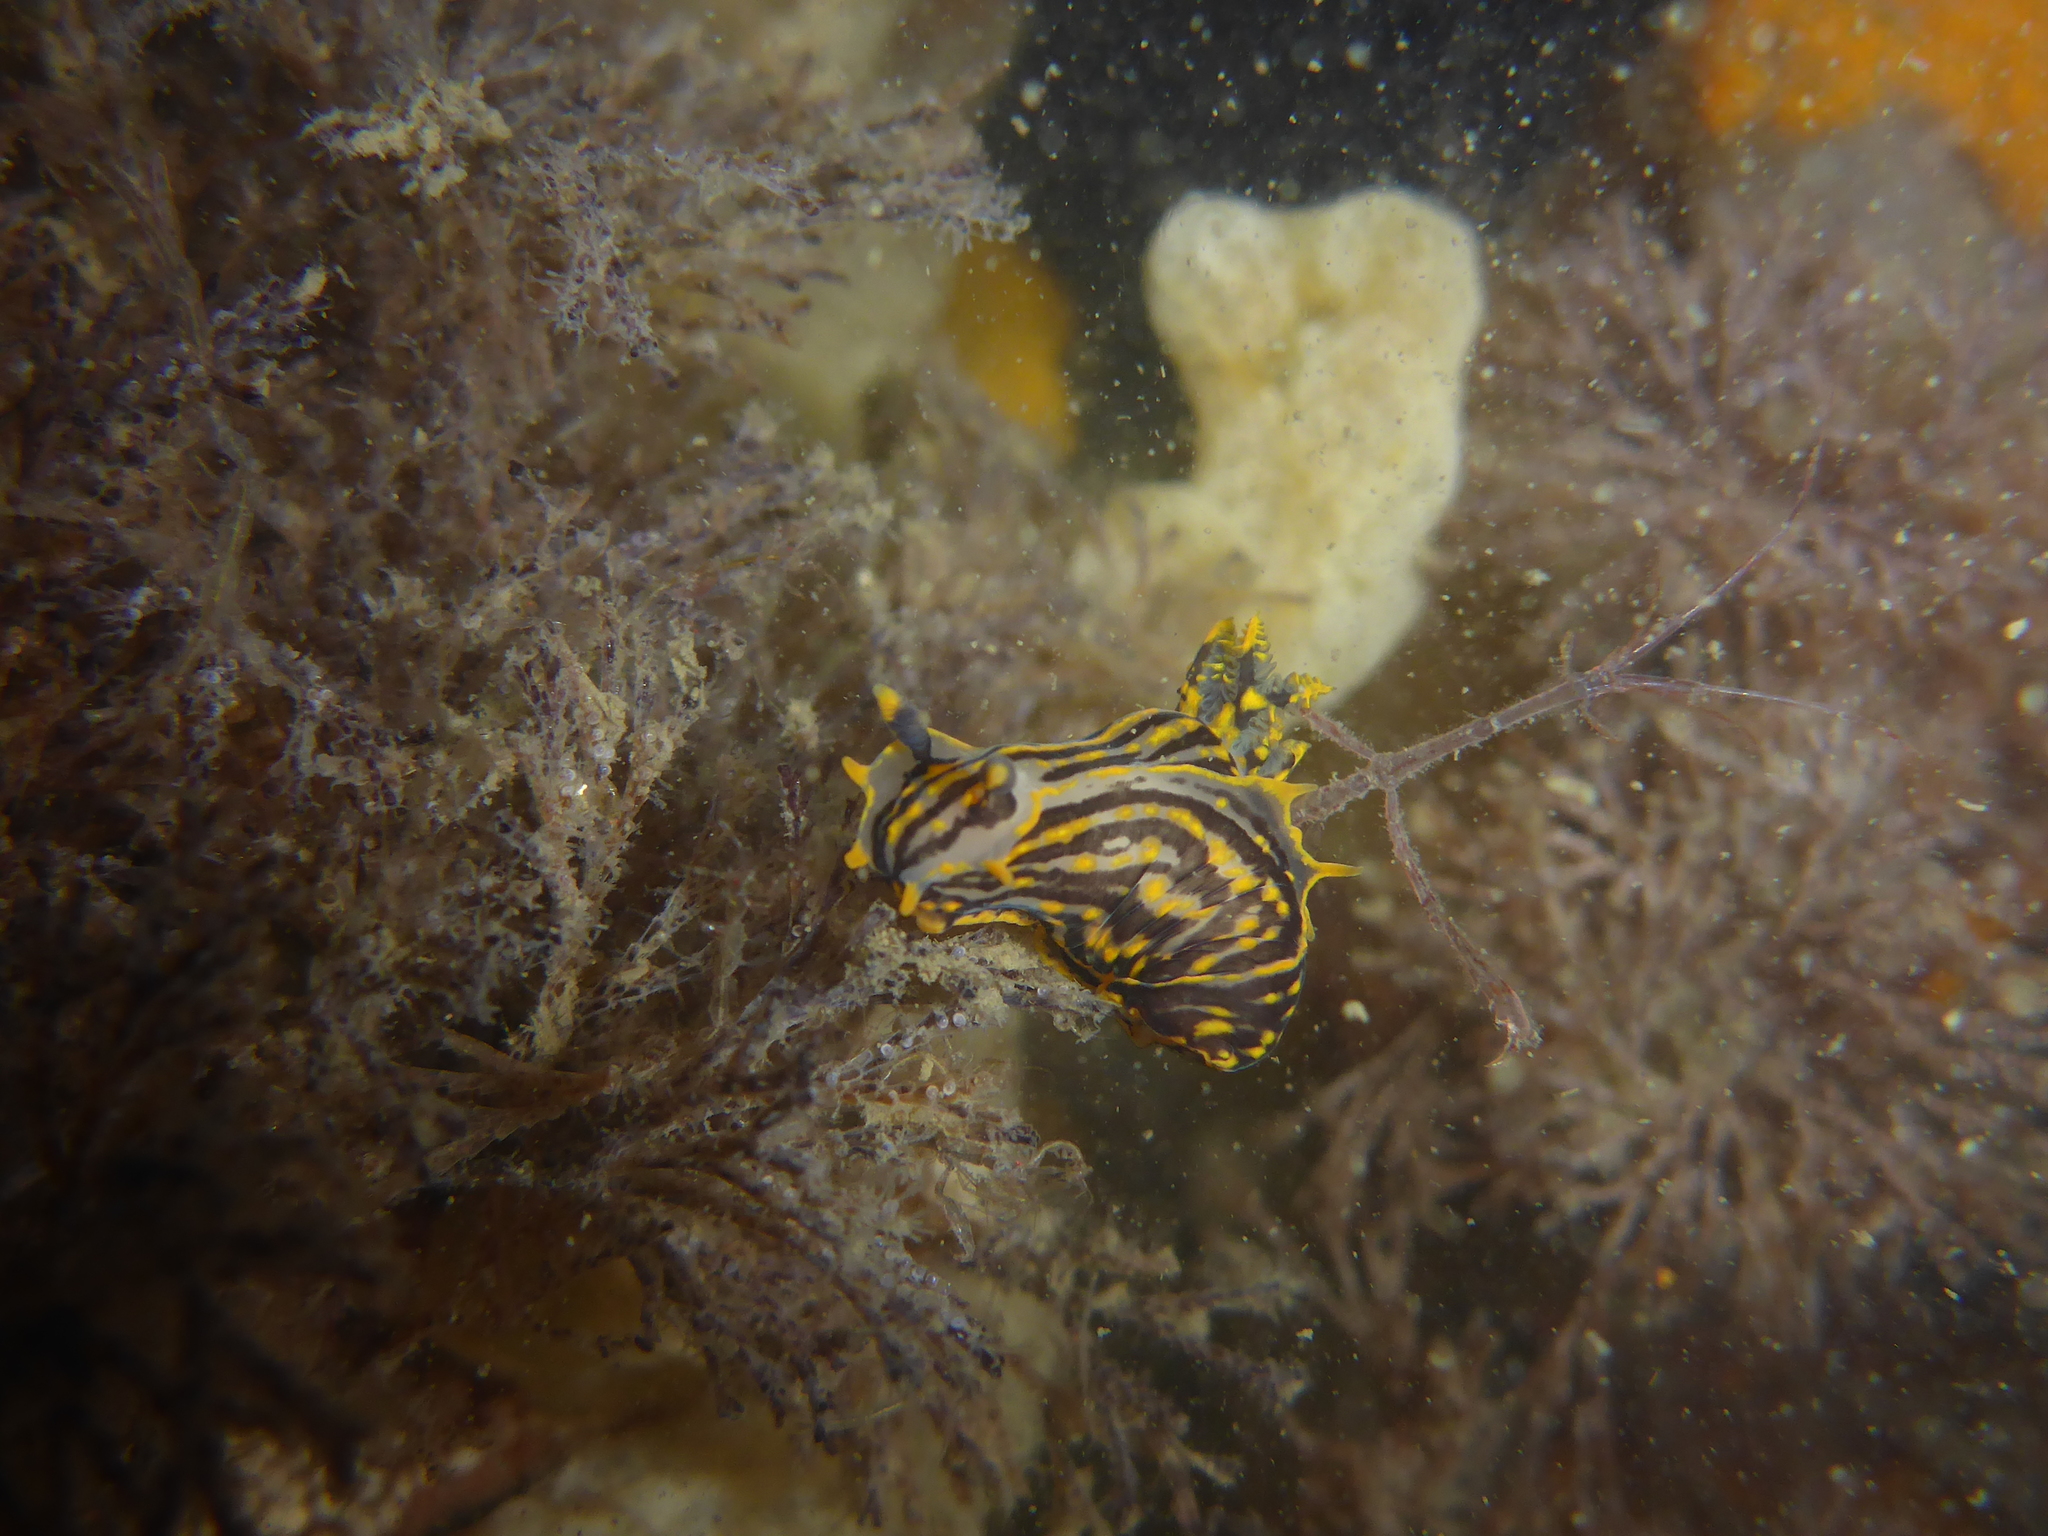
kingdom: Animalia
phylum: Mollusca
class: Gastropoda
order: Nudibranchia
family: Polyceridae
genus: Polycera
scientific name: Polycera atra
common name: Orange-spike polycera
